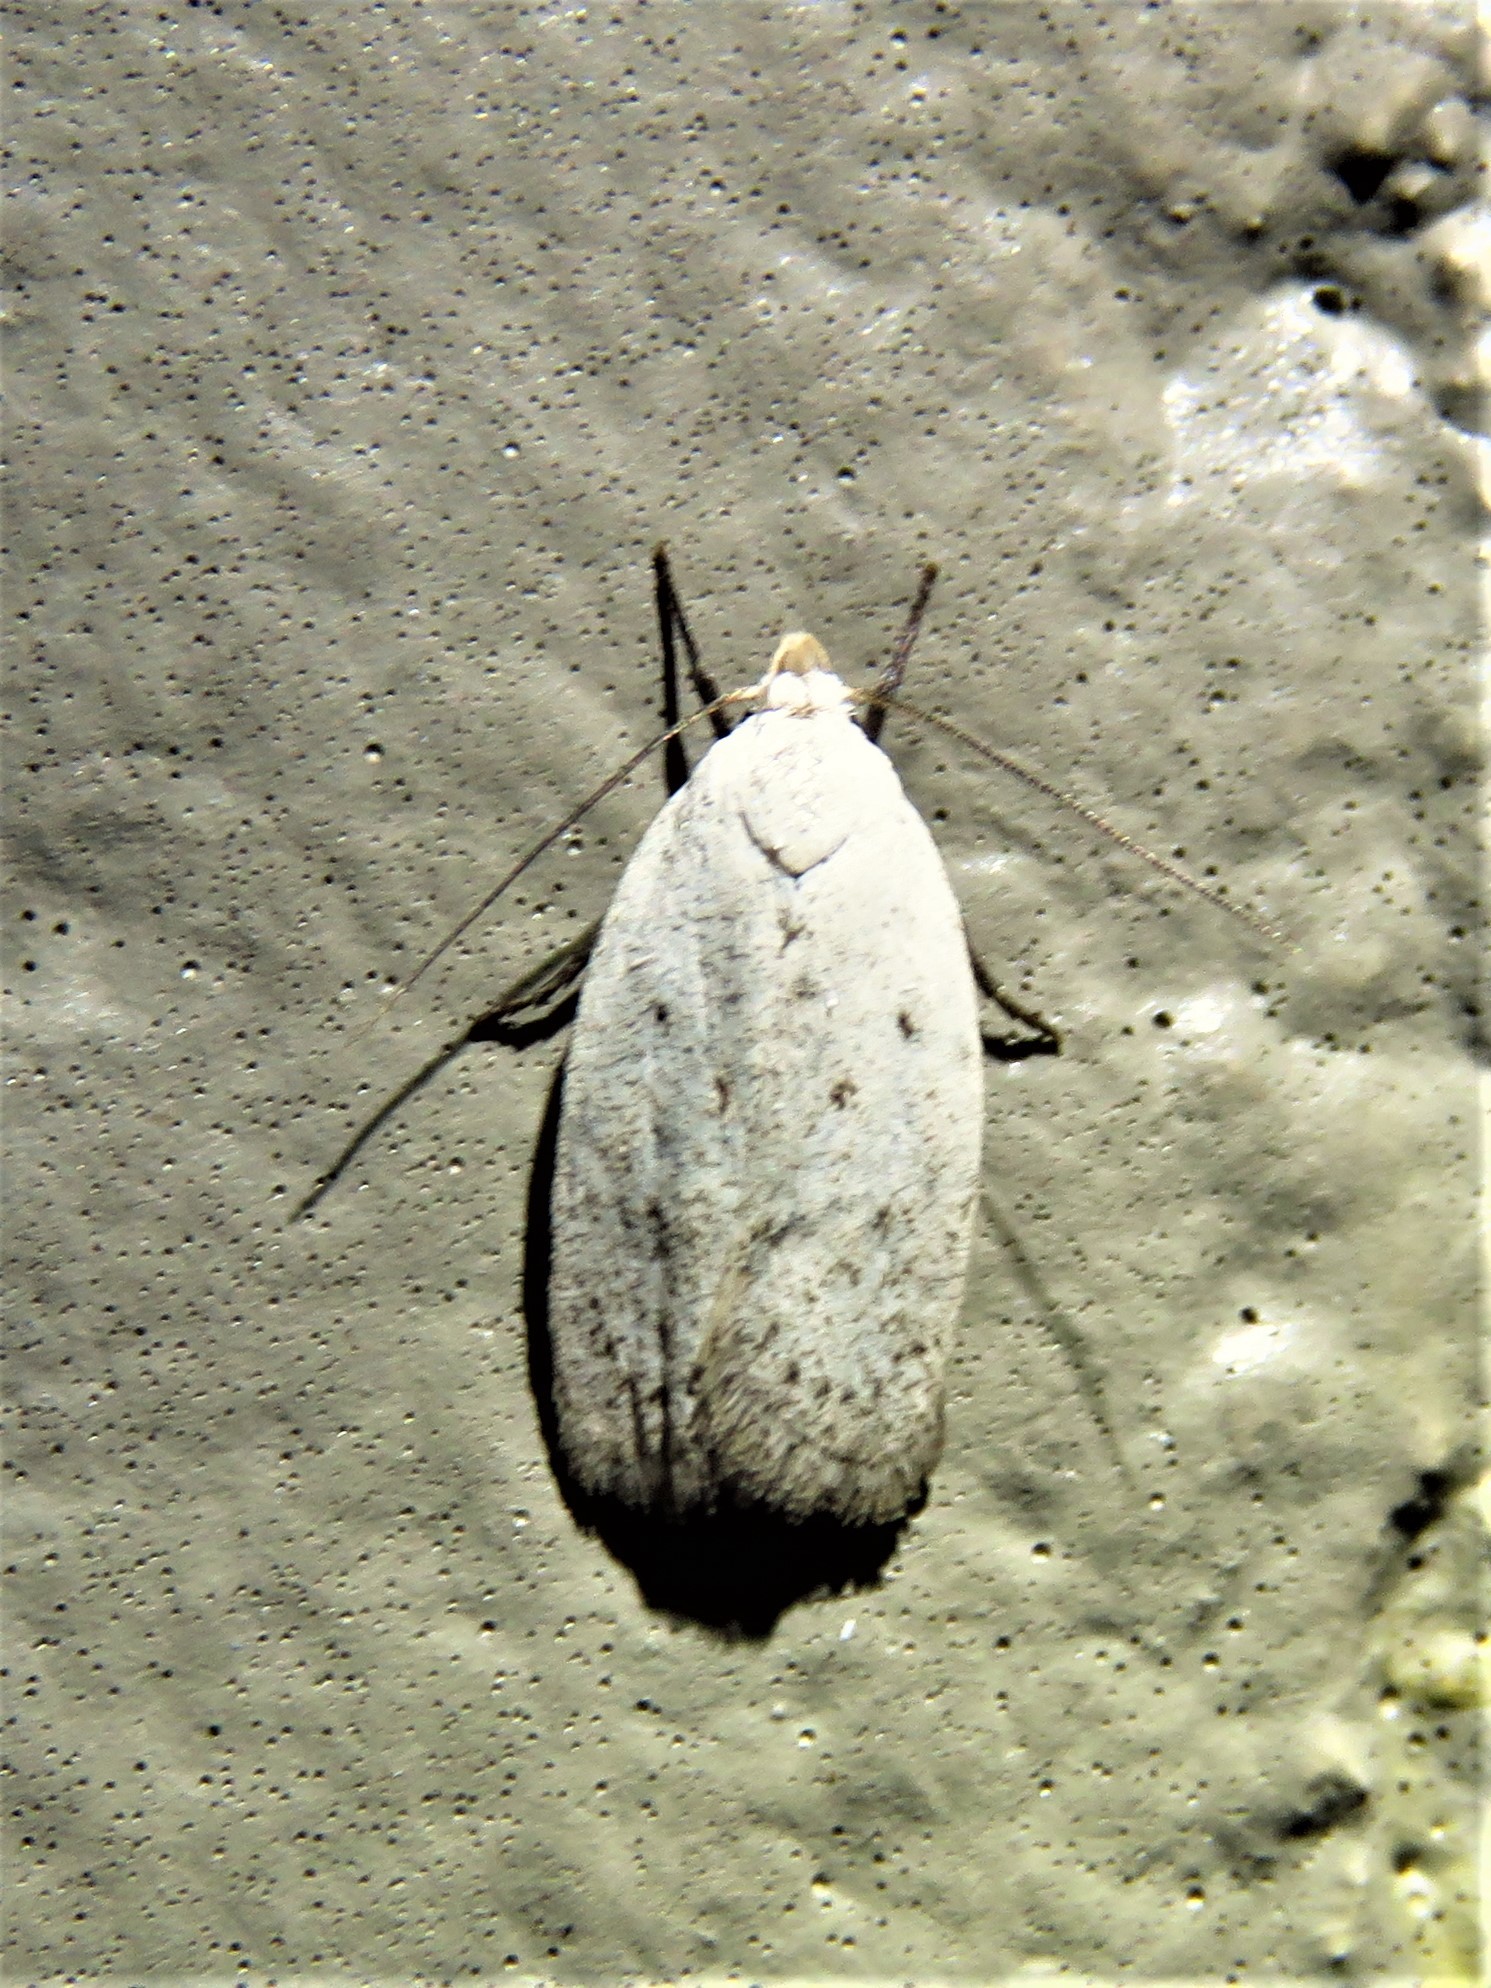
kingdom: Animalia
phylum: Arthropoda
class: Insecta
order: Lepidoptera
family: Oecophoridae
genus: Inga
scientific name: Inga cretacea
